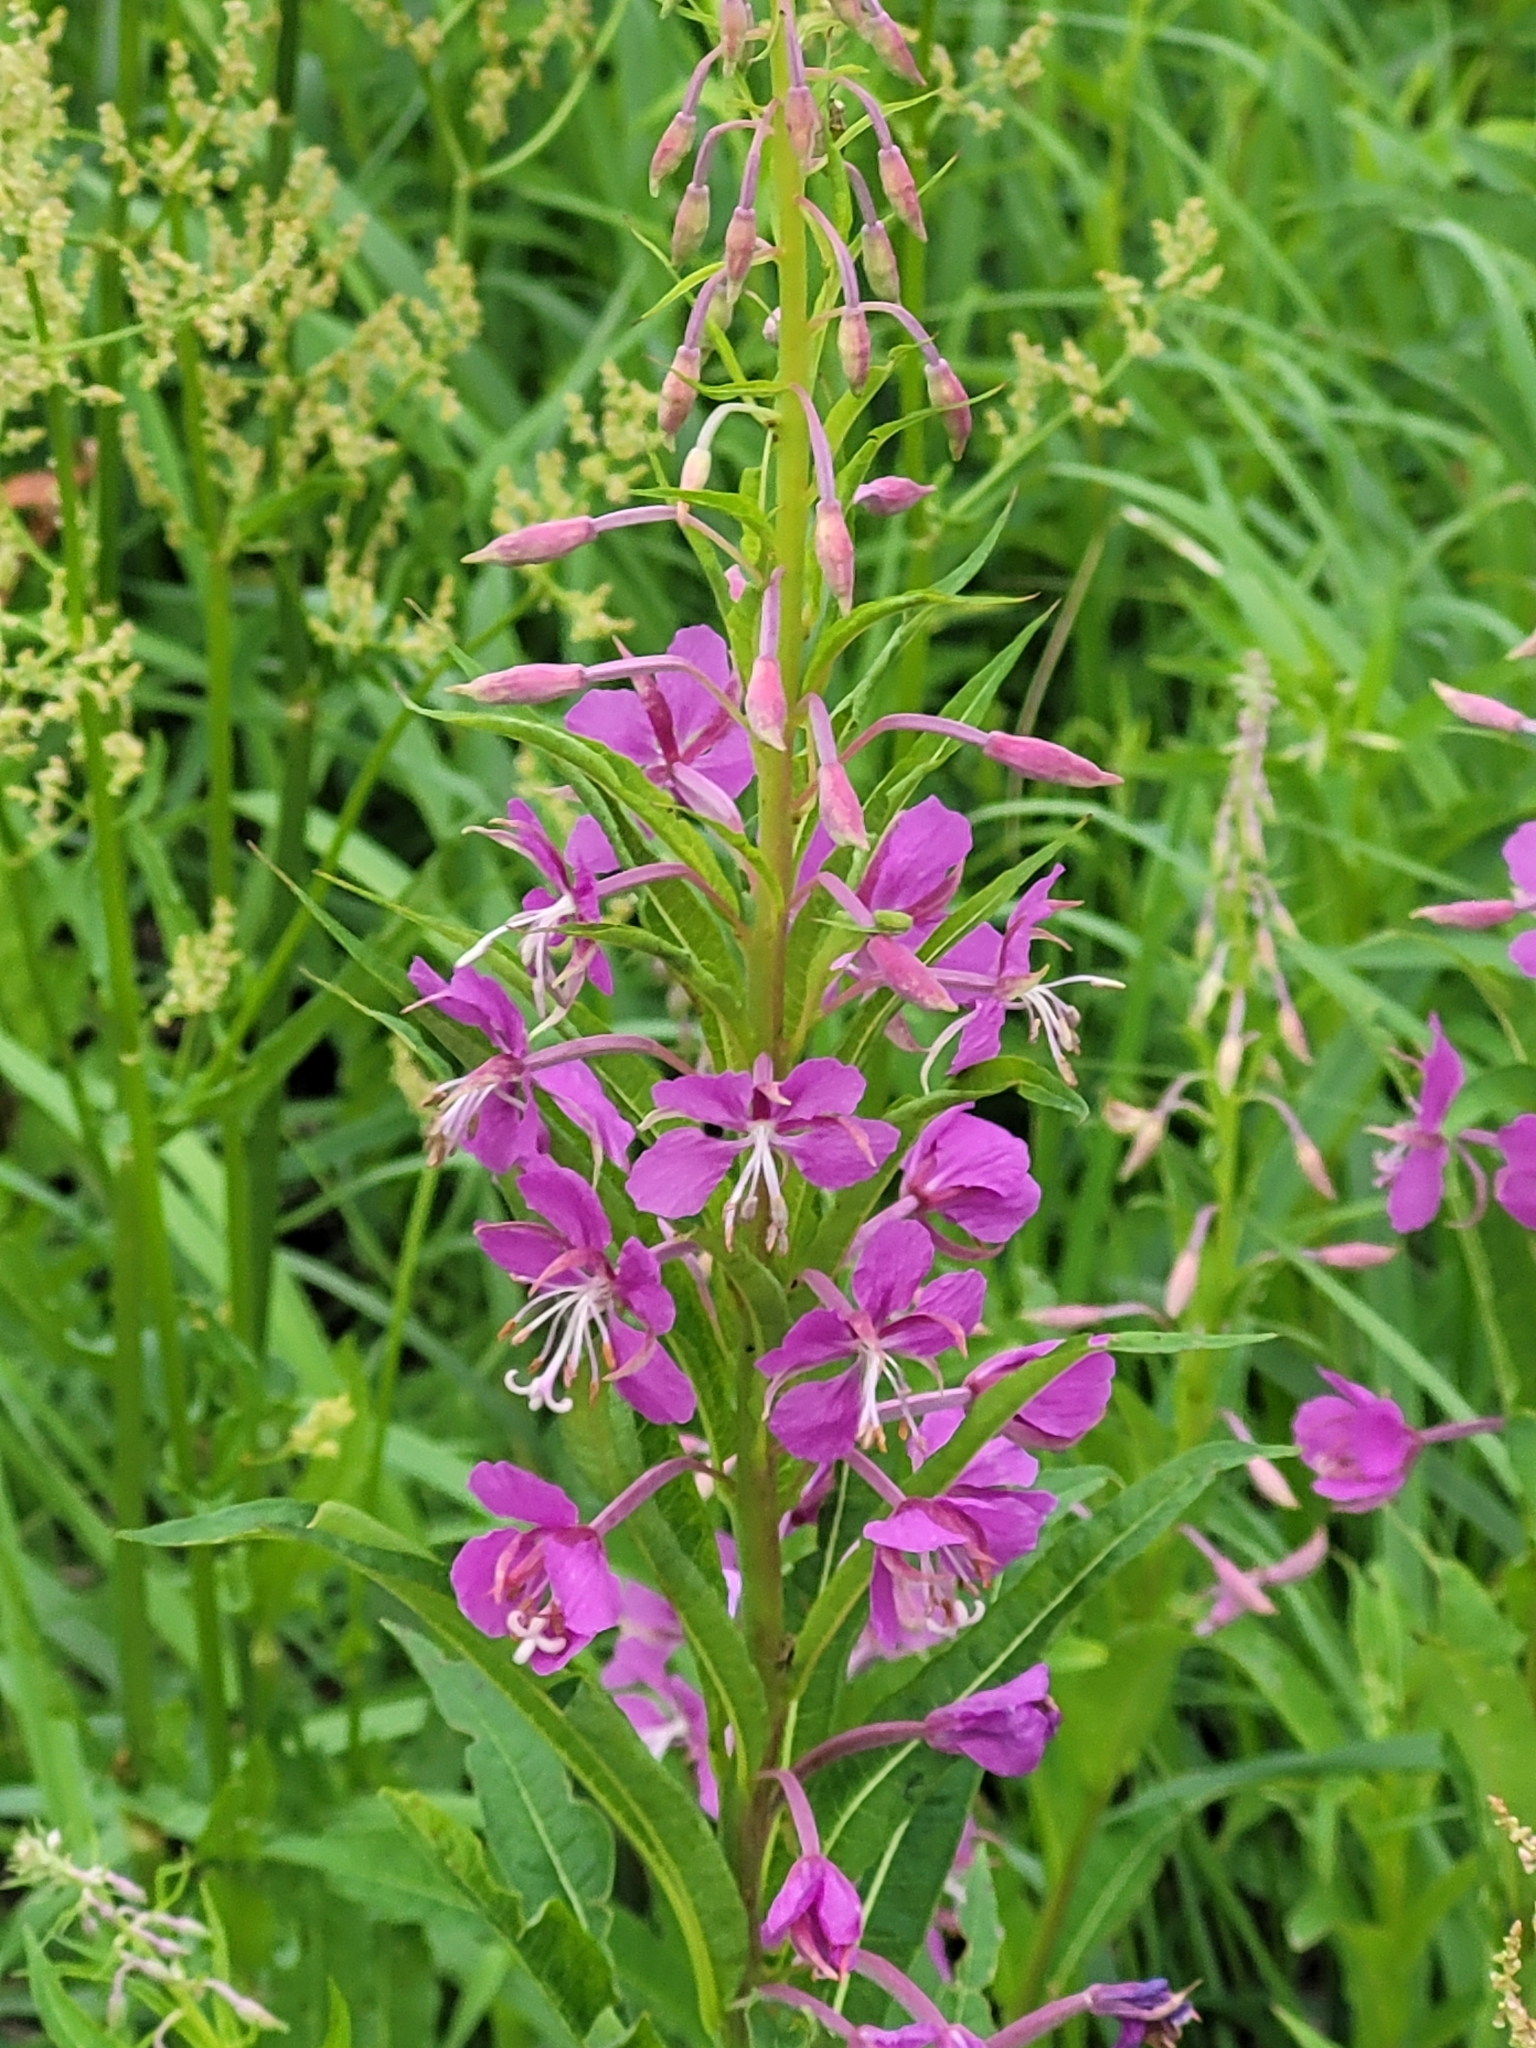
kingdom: Plantae
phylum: Tracheophyta
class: Magnoliopsida
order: Myrtales
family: Onagraceae
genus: Chamaenerion
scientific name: Chamaenerion angustifolium
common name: Fireweed
